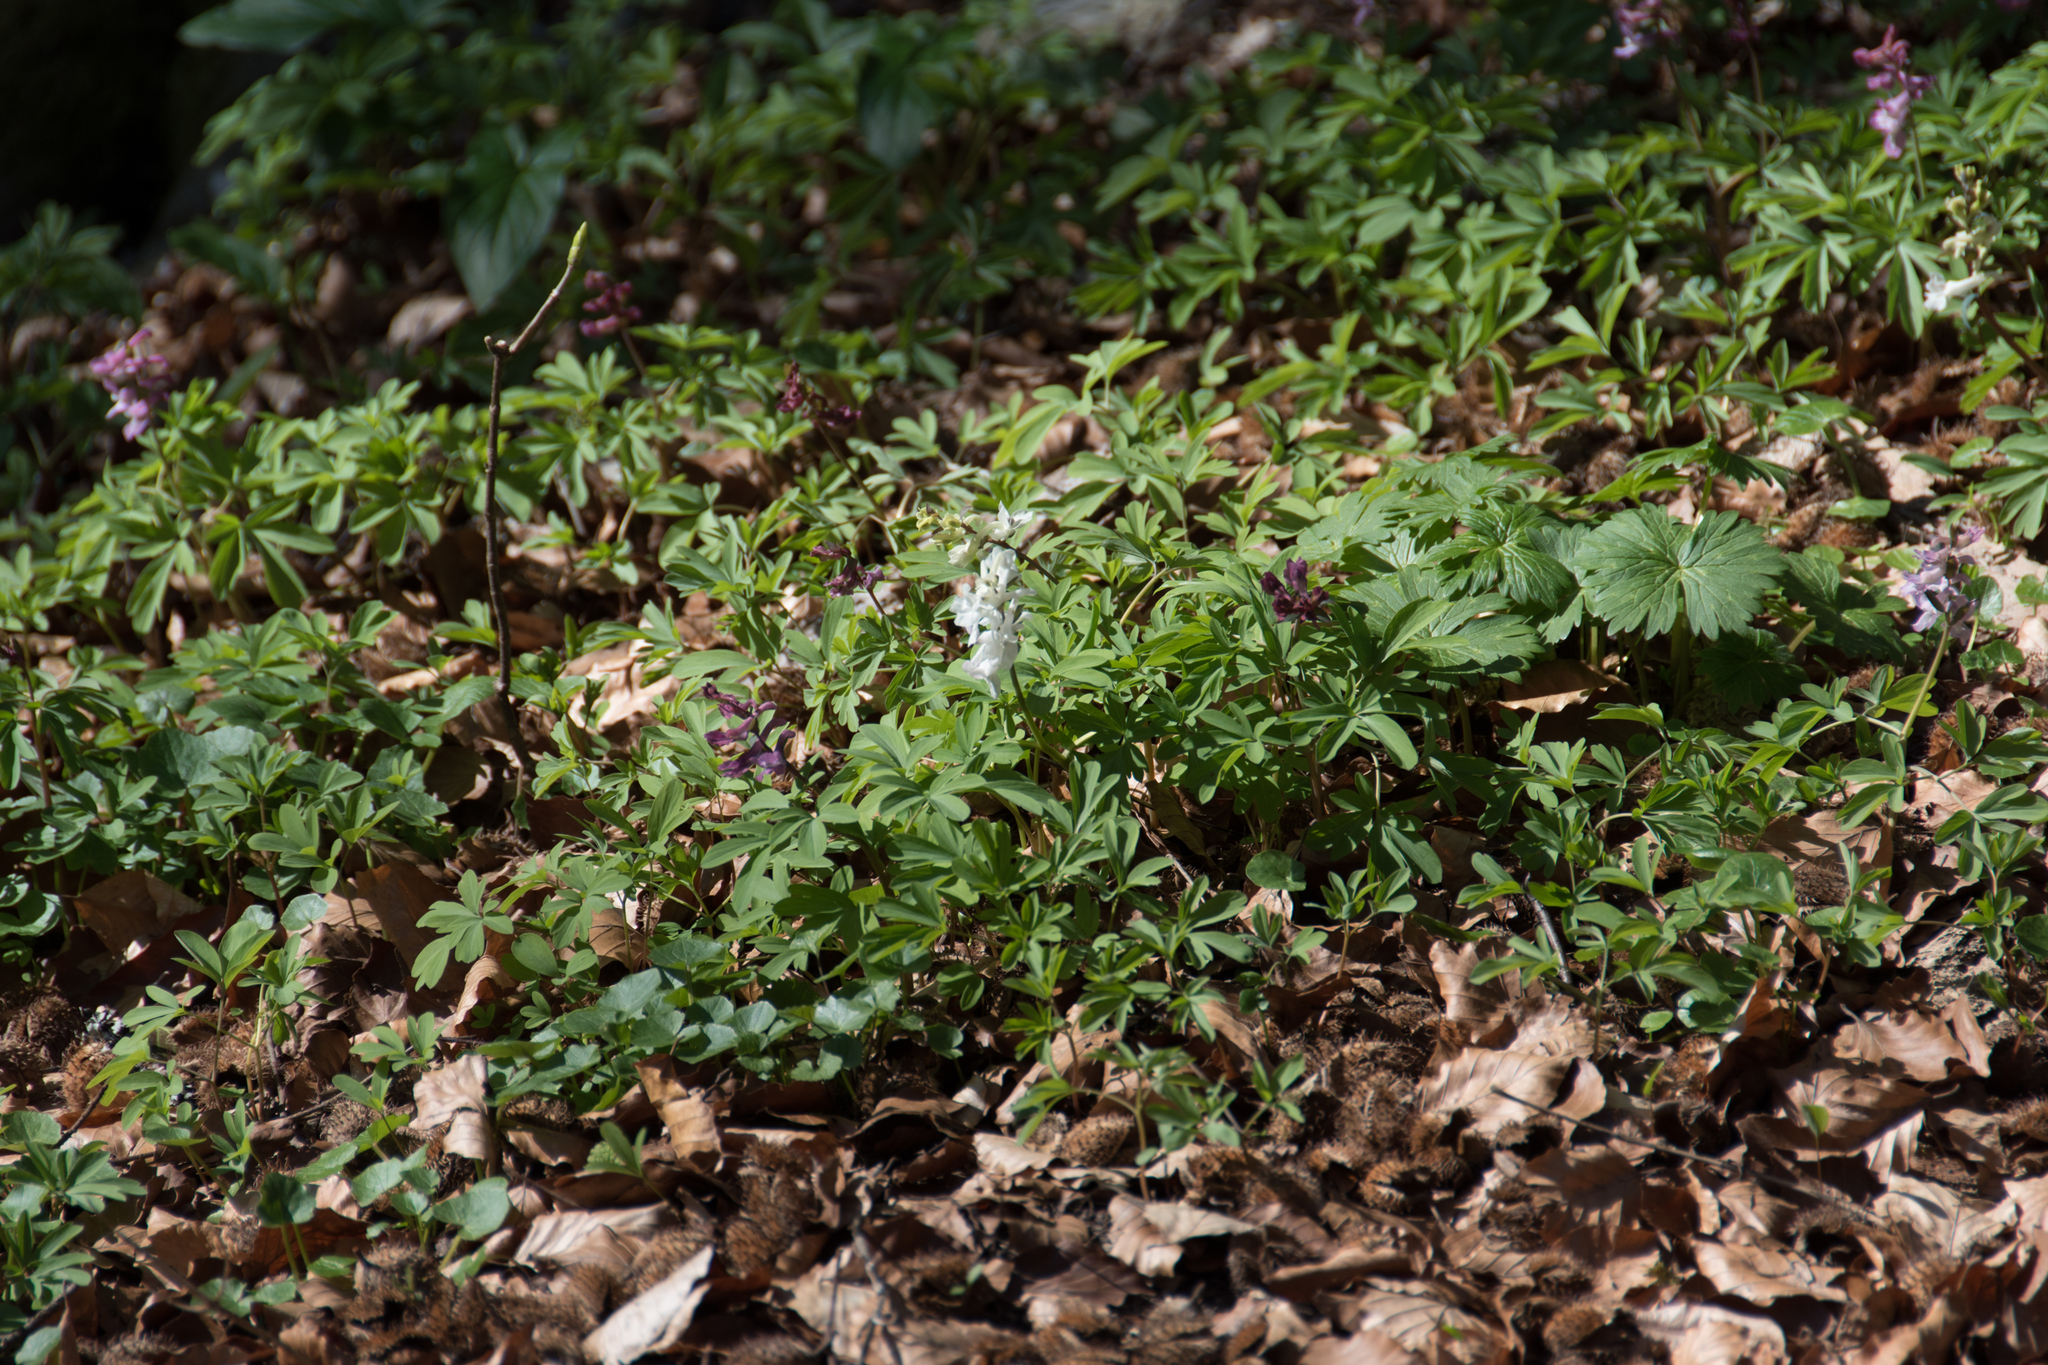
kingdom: Plantae
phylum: Tracheophyta
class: Magnoliopsida
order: Ranunculales
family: Papaveraceae
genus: Corydalis
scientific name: Corydalis cava
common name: Hollowroot
